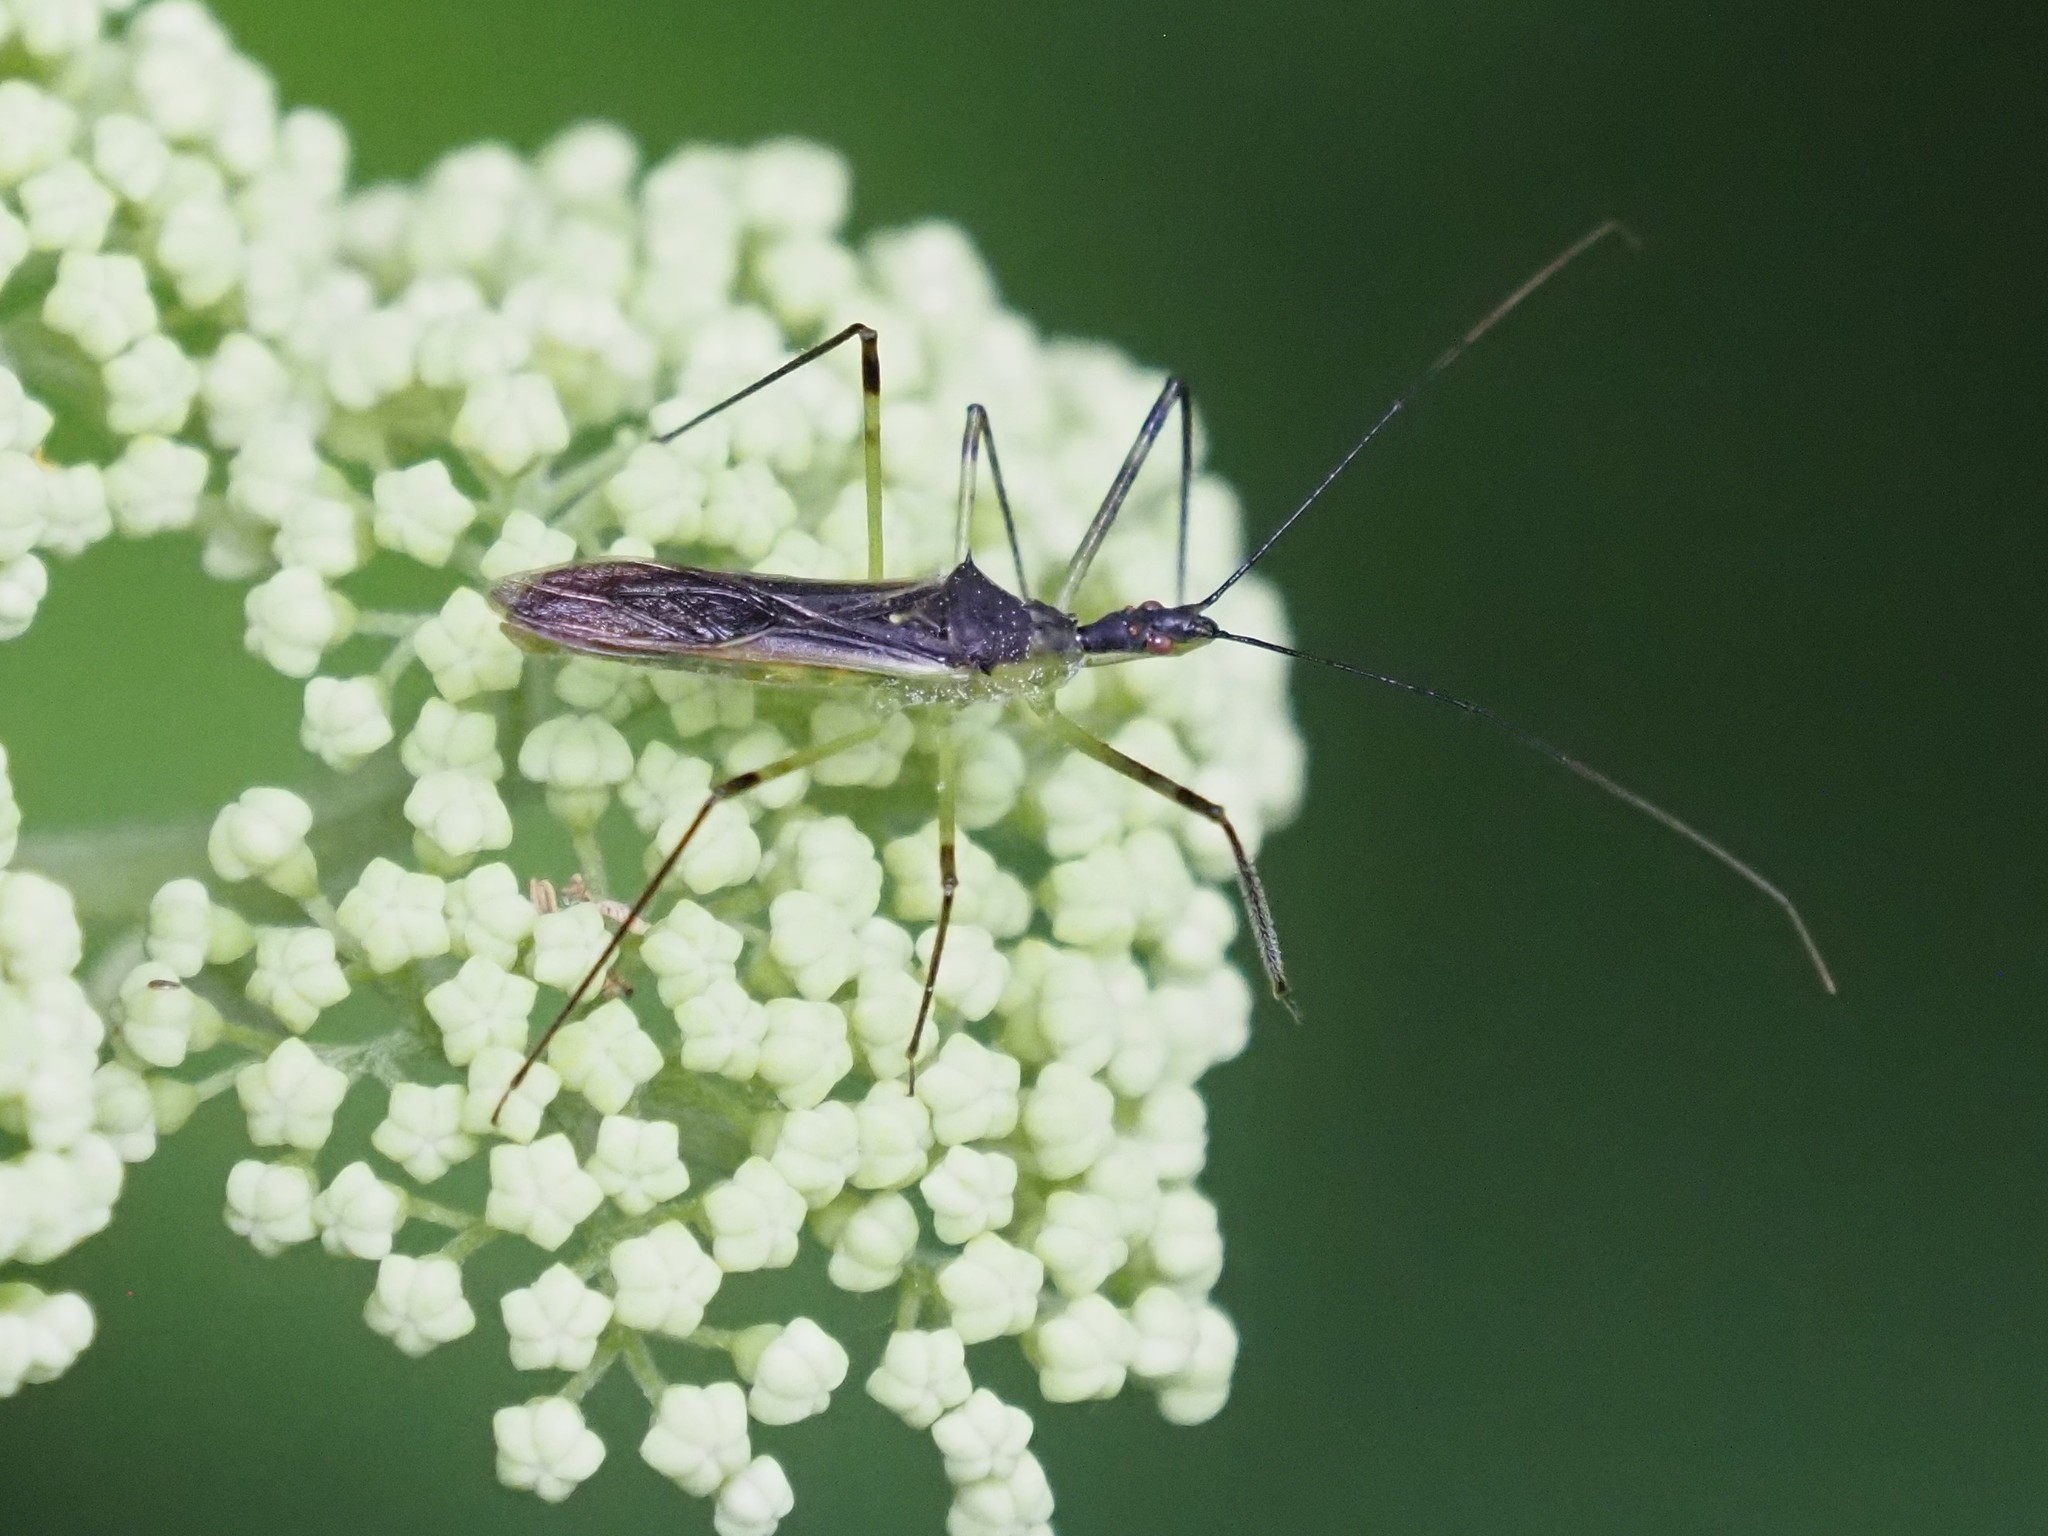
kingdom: Animalia
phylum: Arthropoda
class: Insecta
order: Hemiptera
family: Reduviidae
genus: Zelus
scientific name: Zelus luridus
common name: Pale green assassin bug
